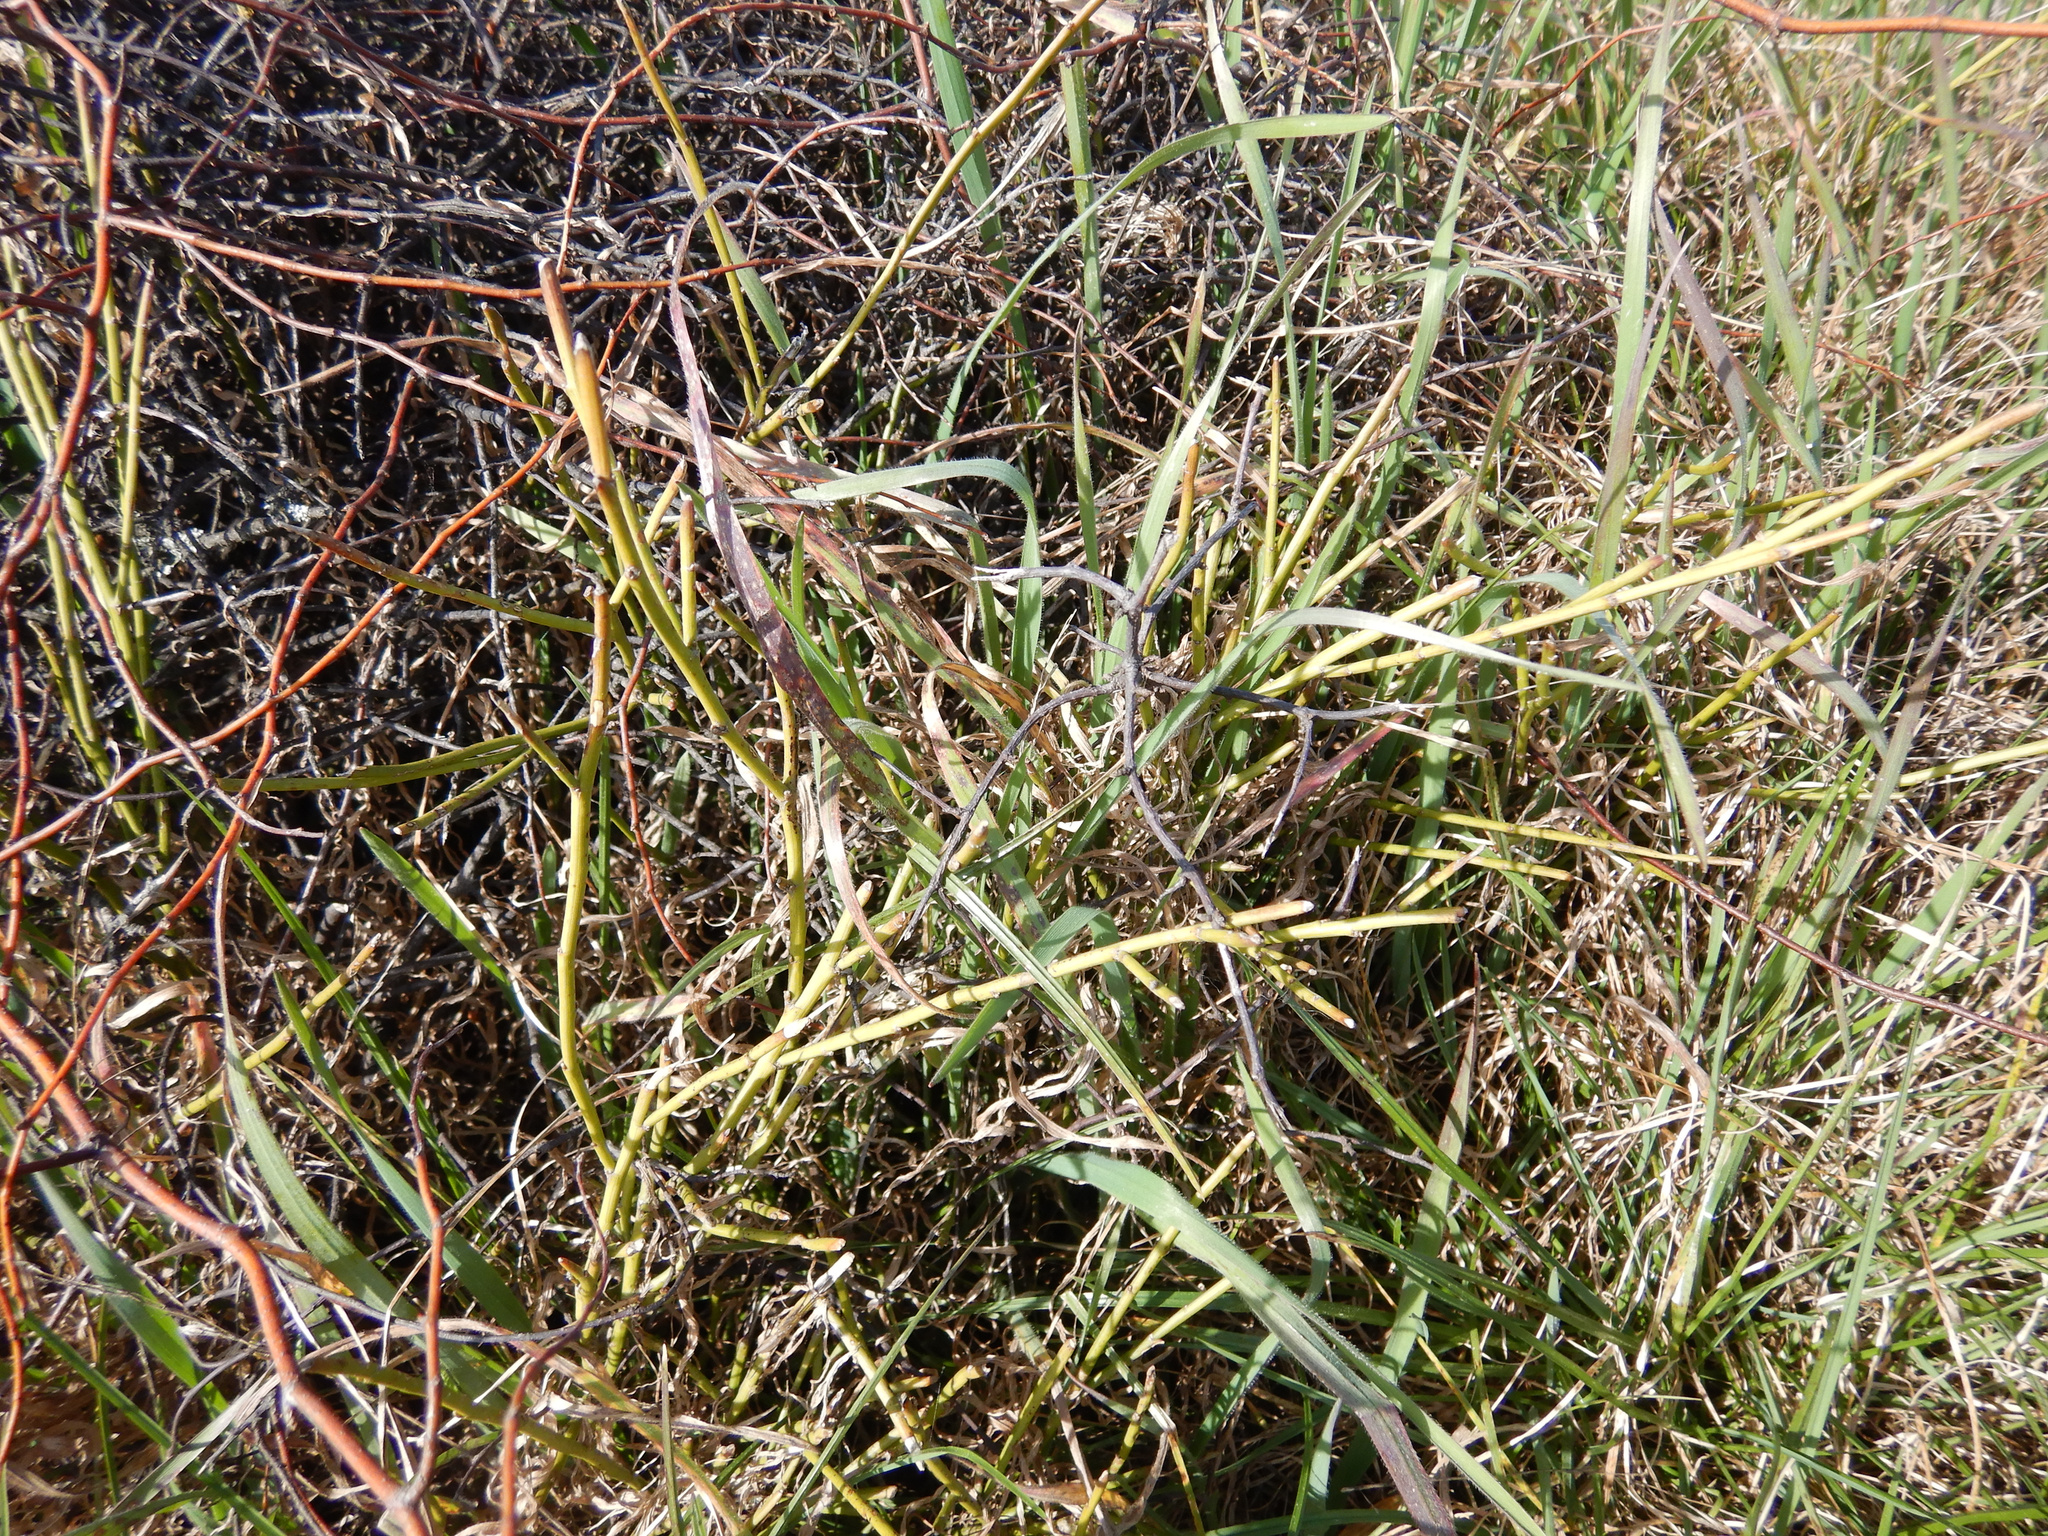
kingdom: Plantae
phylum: Tracheophyta
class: Magnoliopsida
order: Fabales
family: Fabaceae
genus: Carmichaelia
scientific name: Carmichaelia australis
